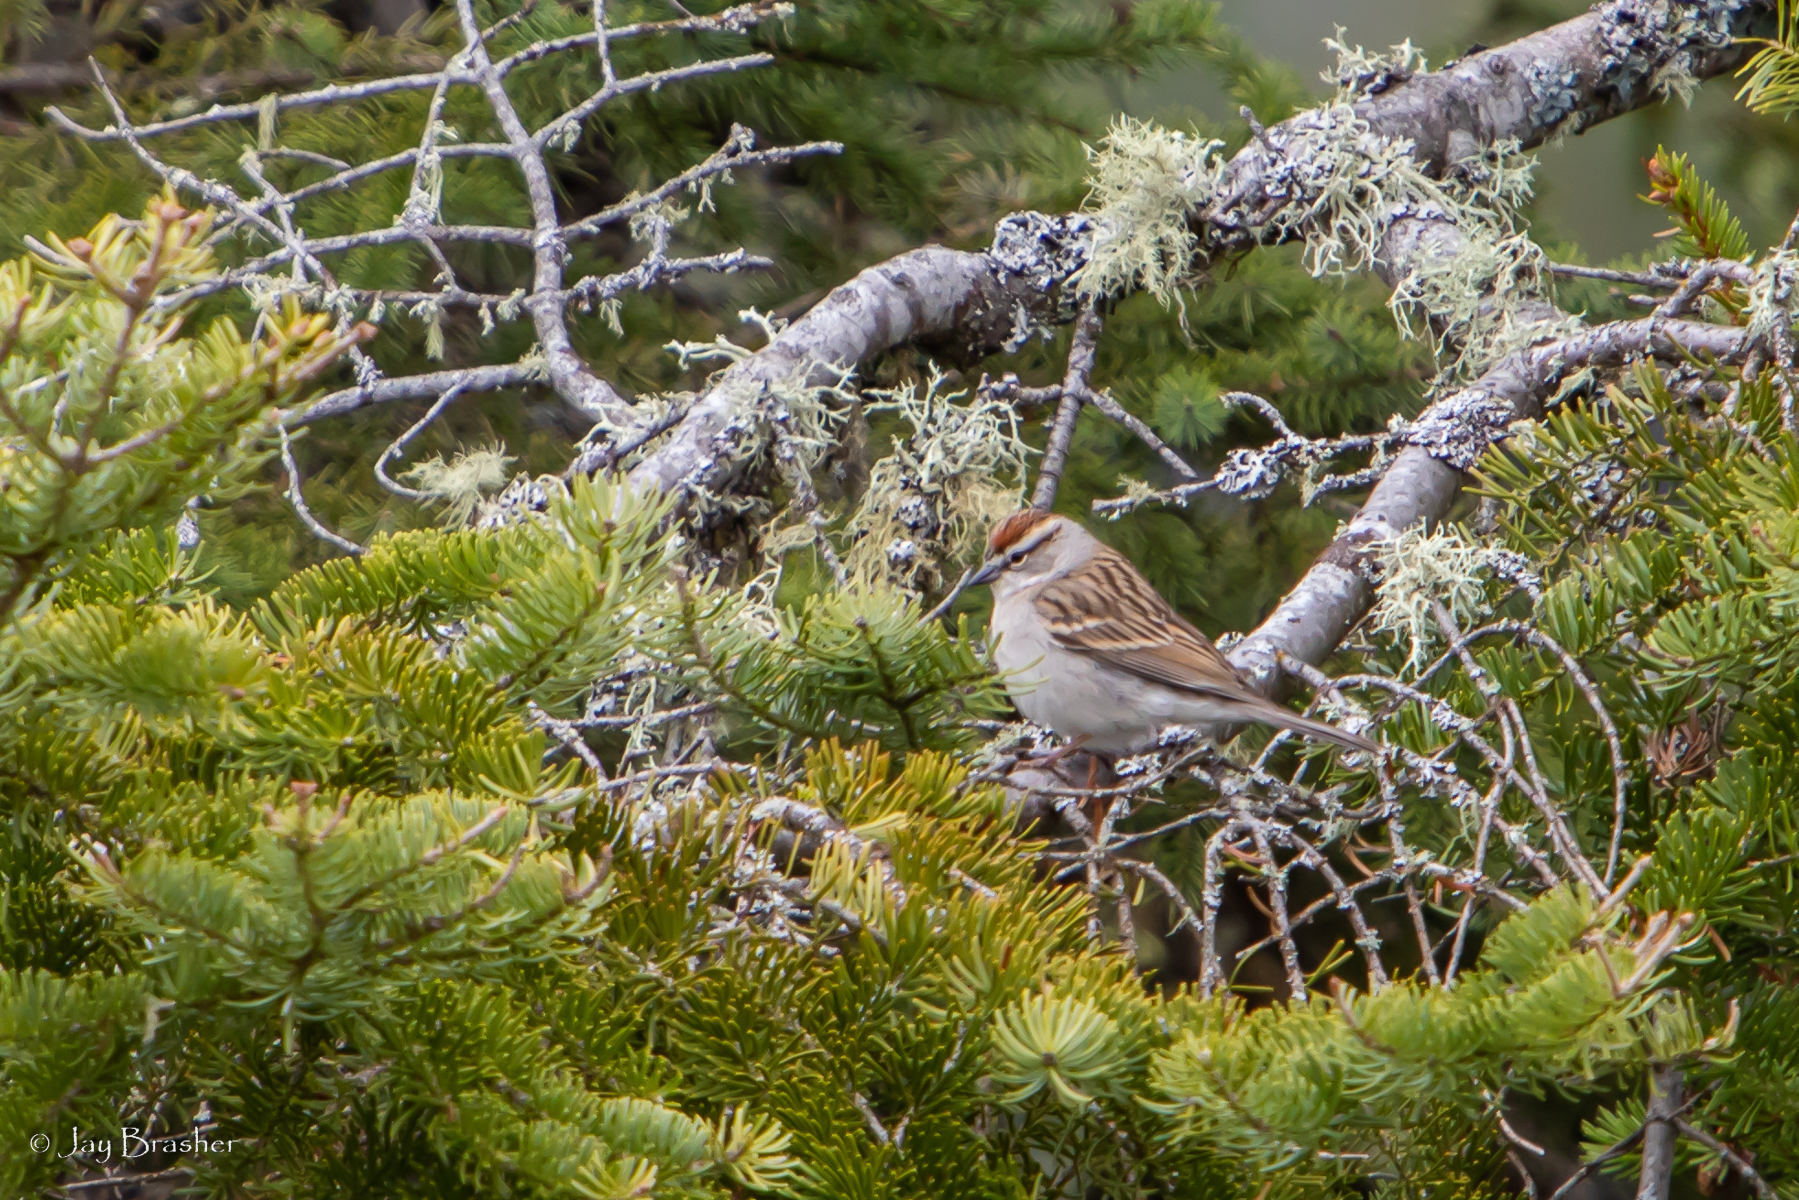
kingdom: Animalia
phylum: Chordata
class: Aves
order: Passeriformes
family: Passerellidae
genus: Spizella
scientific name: Spizella passerina
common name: Chipping sparrow
